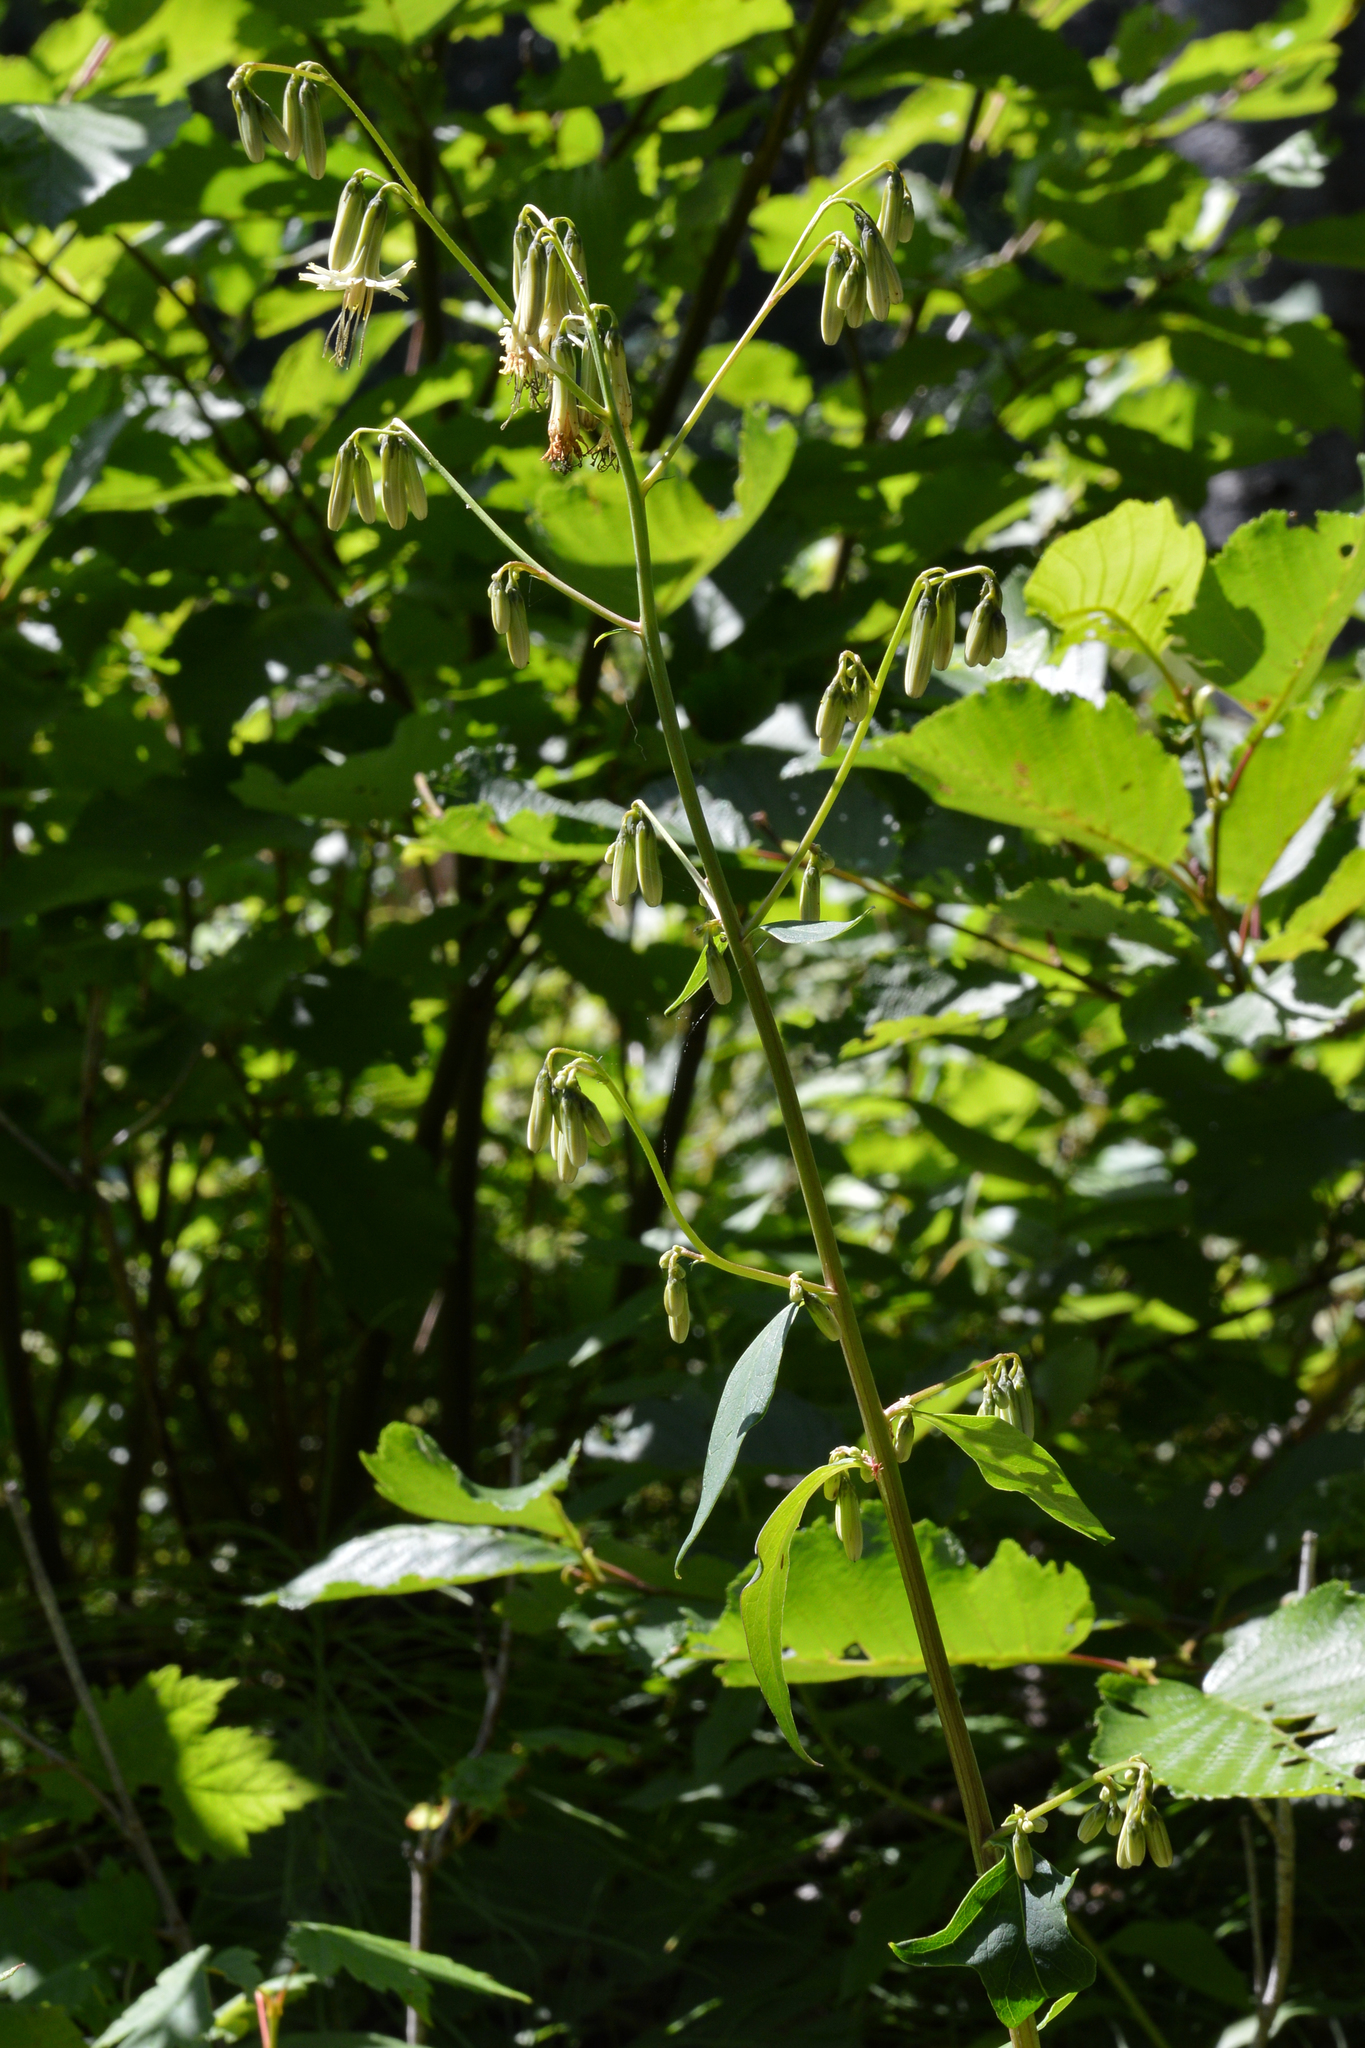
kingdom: Plantae
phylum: Tracheophyta
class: Magnoliopsida
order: Asterales
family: Asteraceae
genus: Nabalus
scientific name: Nabalus trifoliolatus
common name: Gall-of-the-earth
